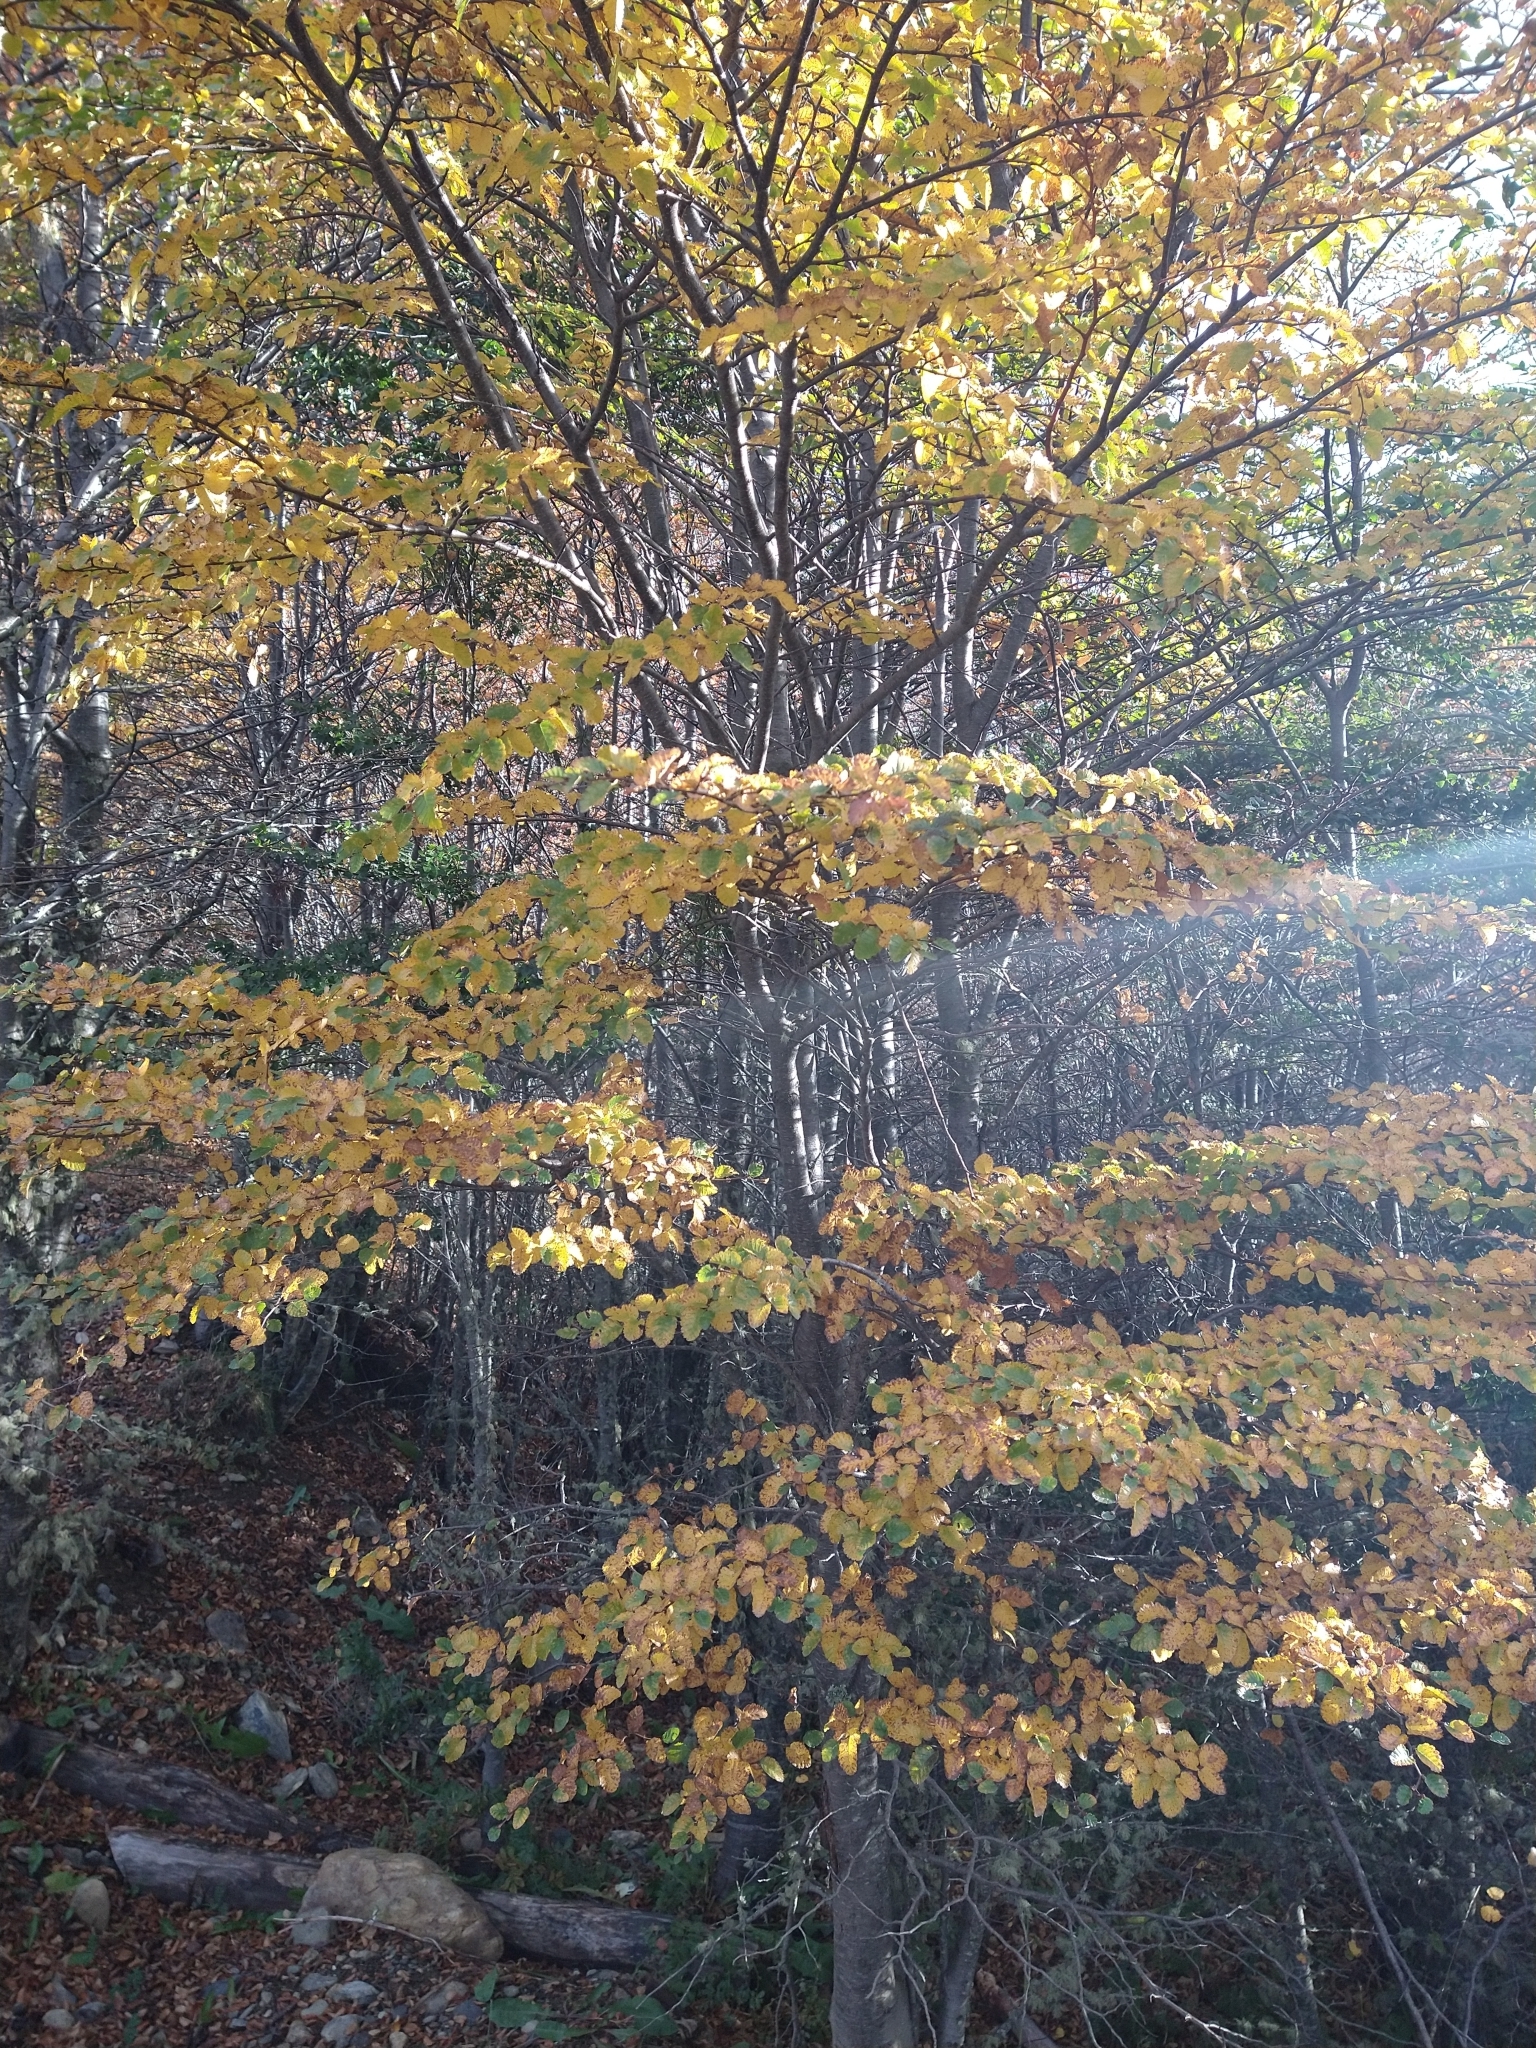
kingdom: Plantae
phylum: Tracheophyta
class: Magnoliopsida
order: Fagales
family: Nothofagaceae
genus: Nothofagus
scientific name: Nothofagus pumilio
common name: Lenga beech
